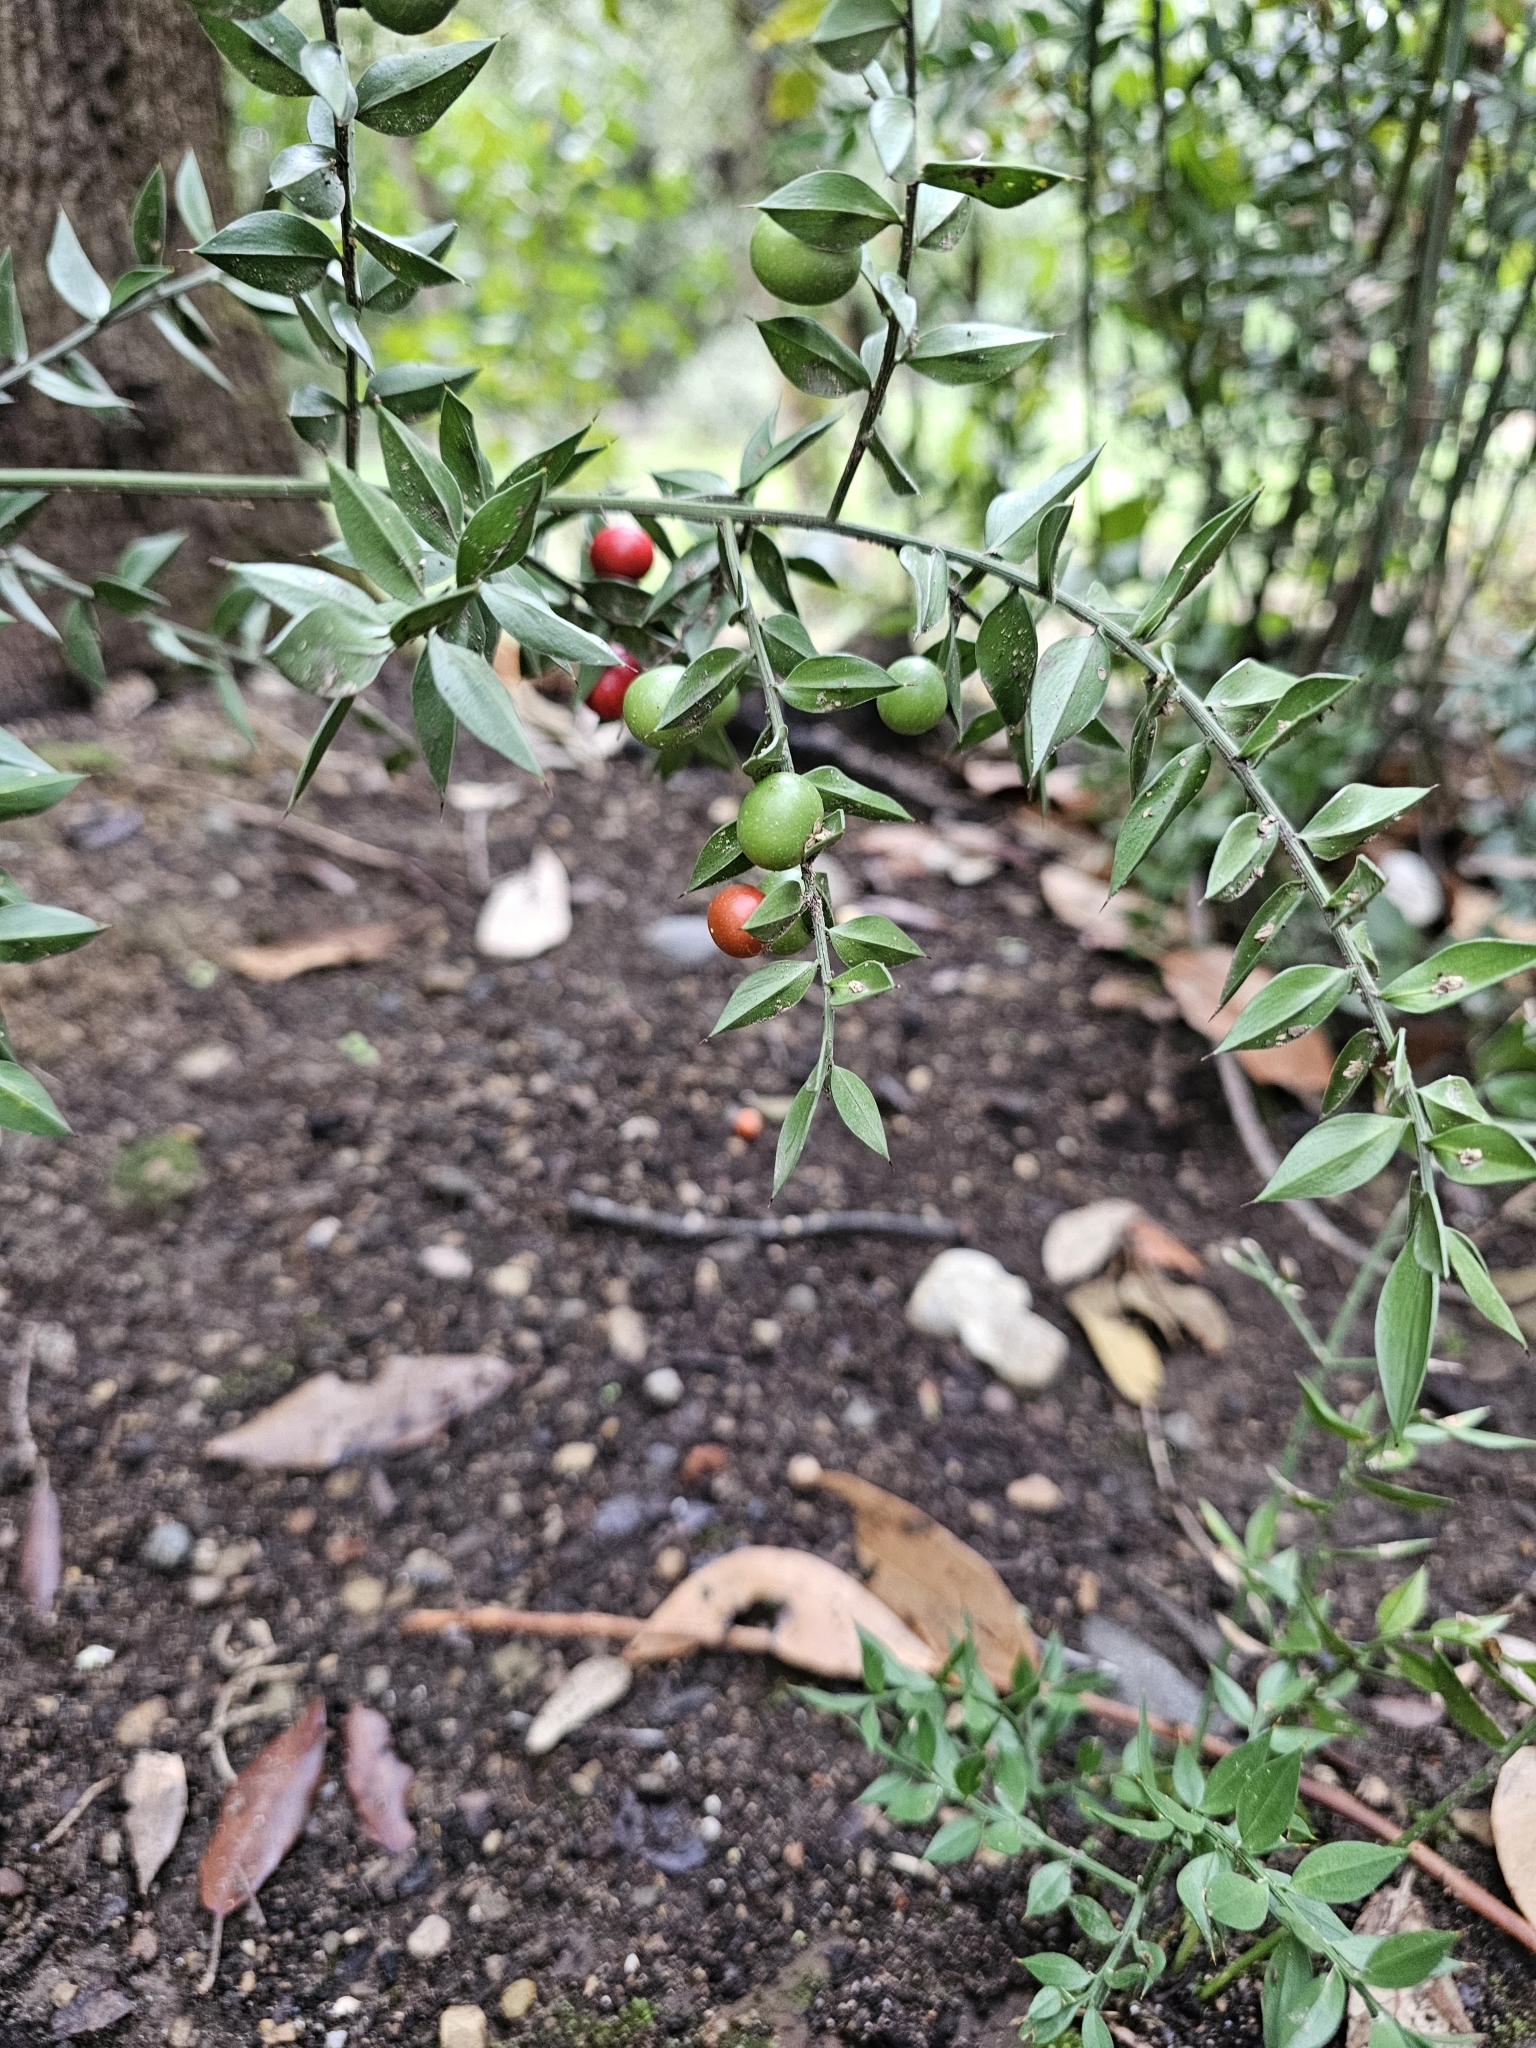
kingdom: Plantae
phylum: Tracheophyta
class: Liliopsida
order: Asparagales
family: Asparagaceae
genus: Ruscus
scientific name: Ruscus aculeatus
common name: Butcher's-broom
